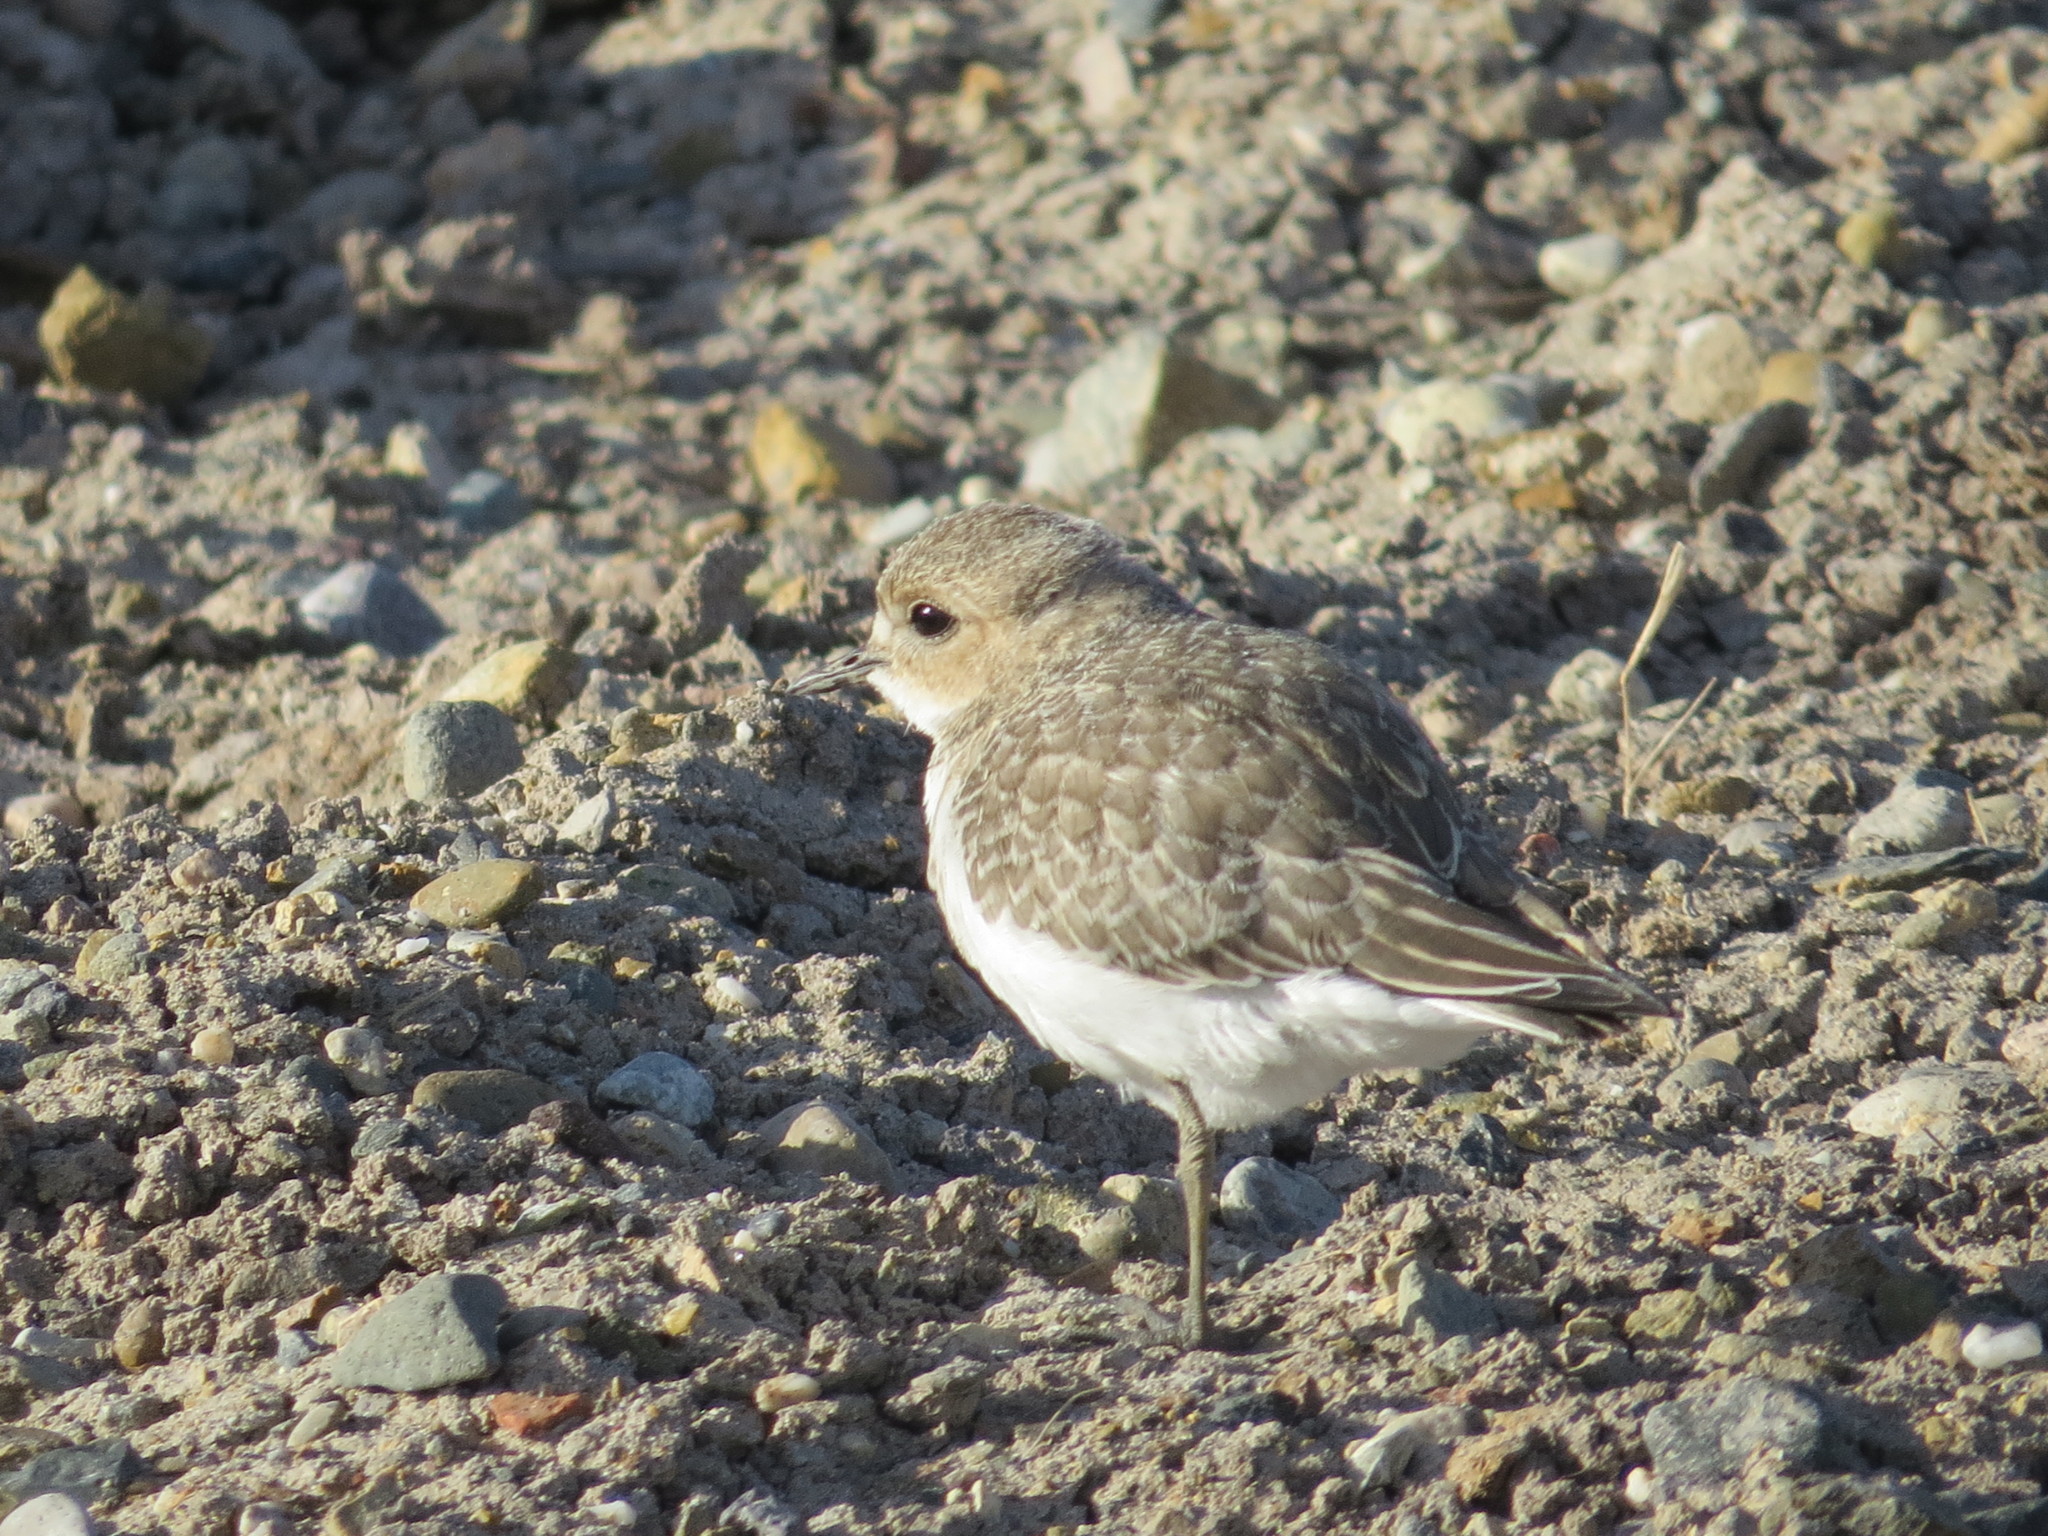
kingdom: Animalia
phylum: Chordata
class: Aves
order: Charadriiformes
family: Charadriidae
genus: Anarhynchus
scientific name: Anarhynchus
